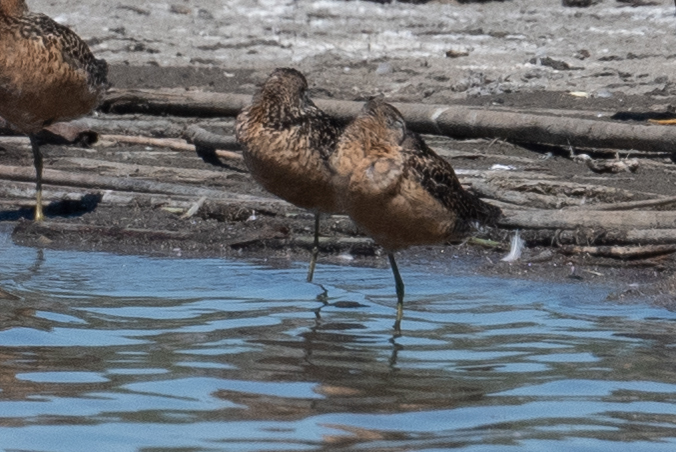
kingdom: Animalia
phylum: Chordata
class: Aves
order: Charadriiformes
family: Scolopacidae
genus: Limnodromus
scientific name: Limnodromus scolopaceus
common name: Long-billed dowitcher
